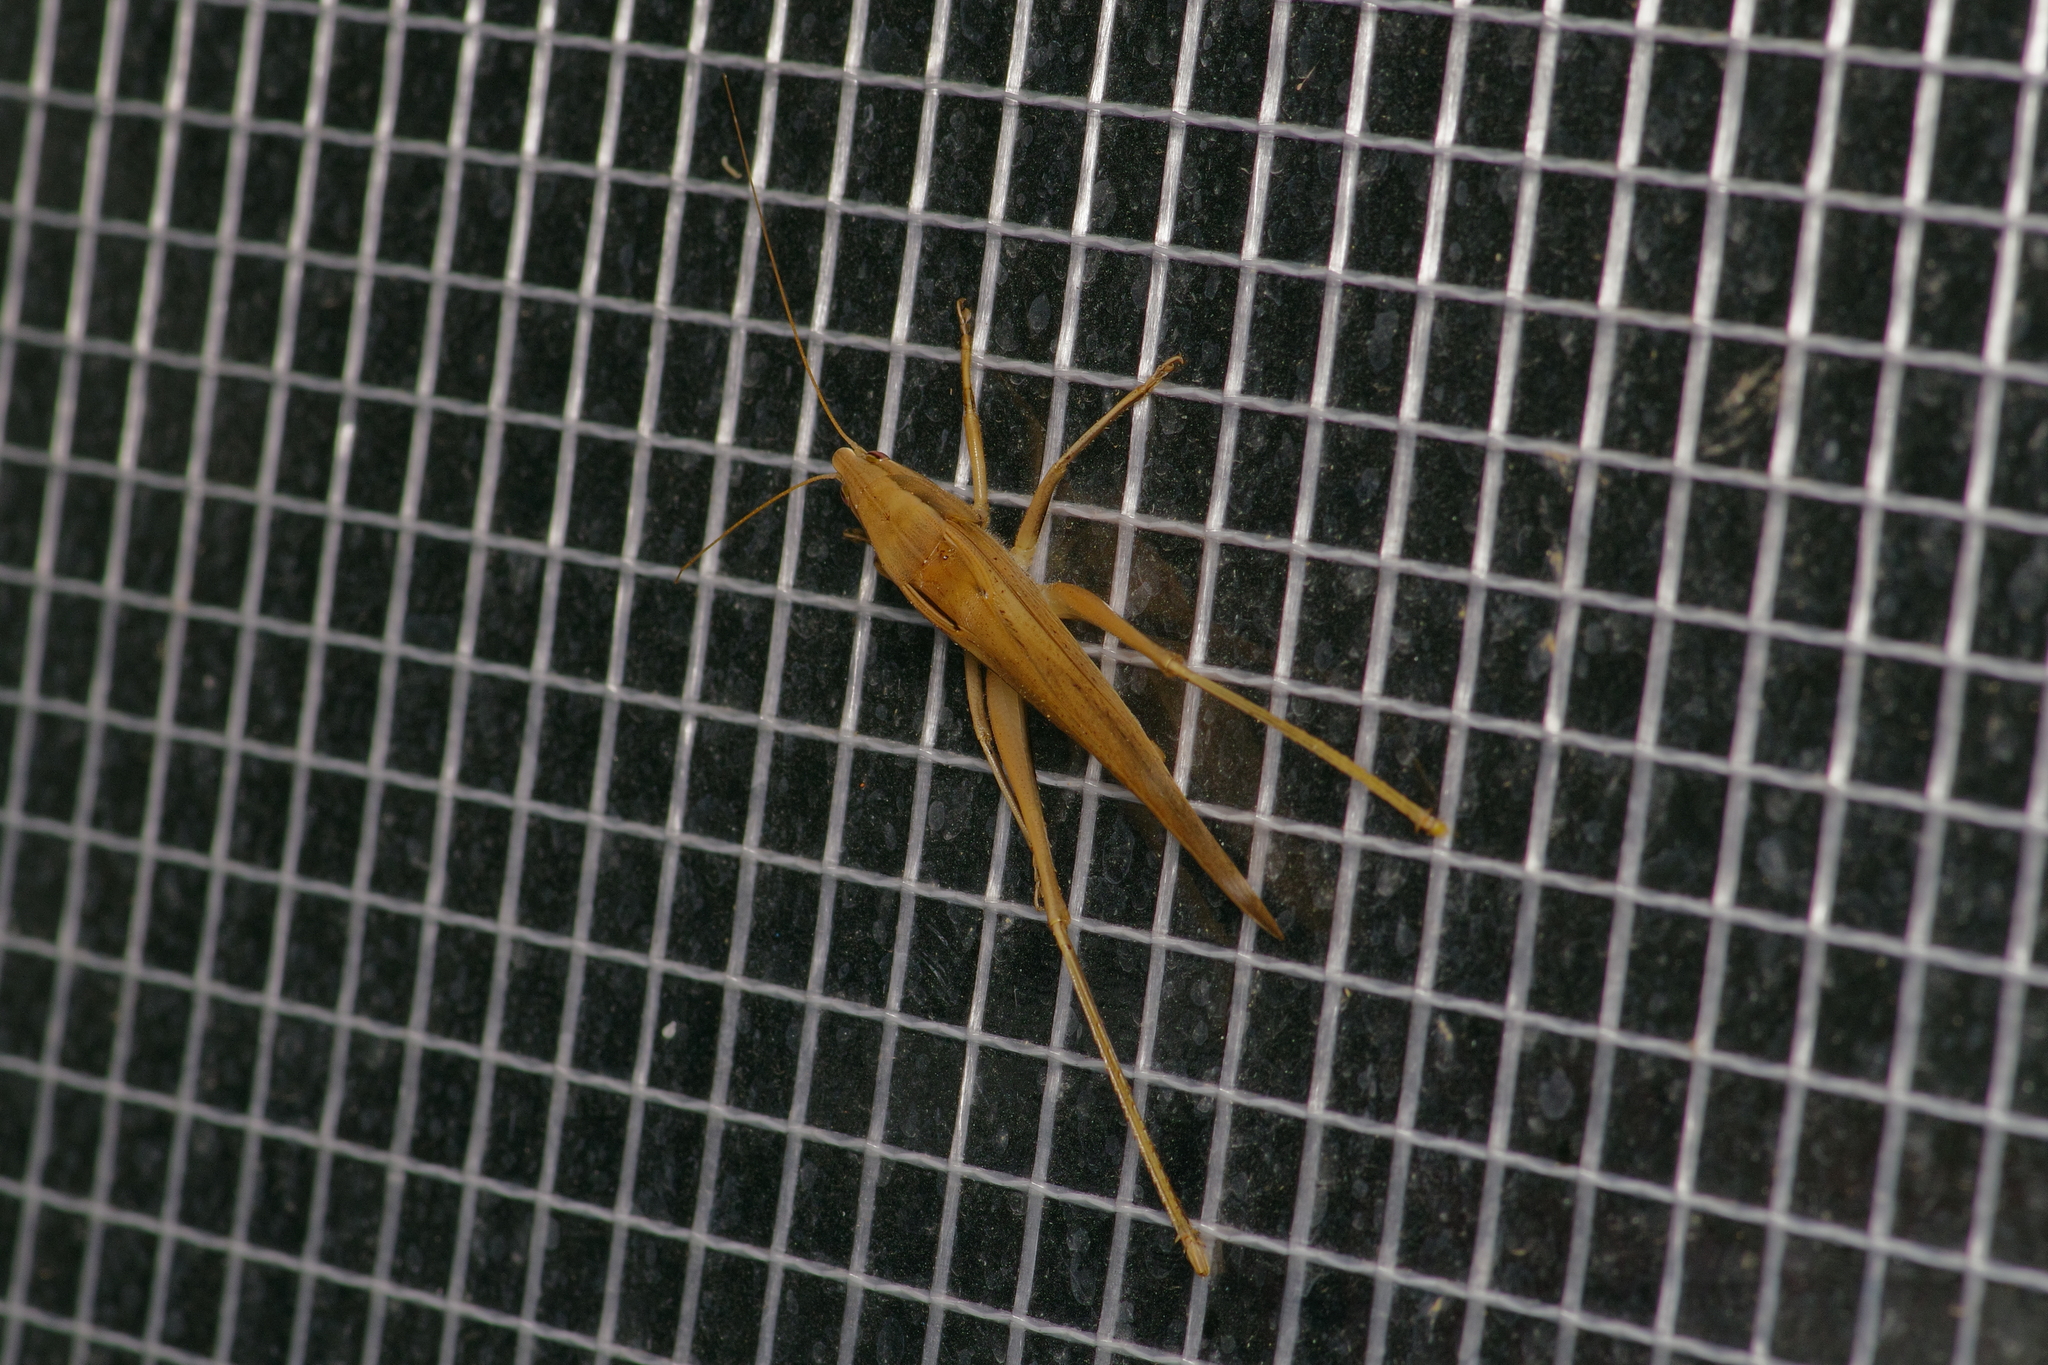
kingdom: Animalia
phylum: Arthropoda
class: Insecta
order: Orthoptera
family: Tettigoniidae
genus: Neoconocephalus
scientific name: Neoconocephalus triops
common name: Broad-tipped conehead
